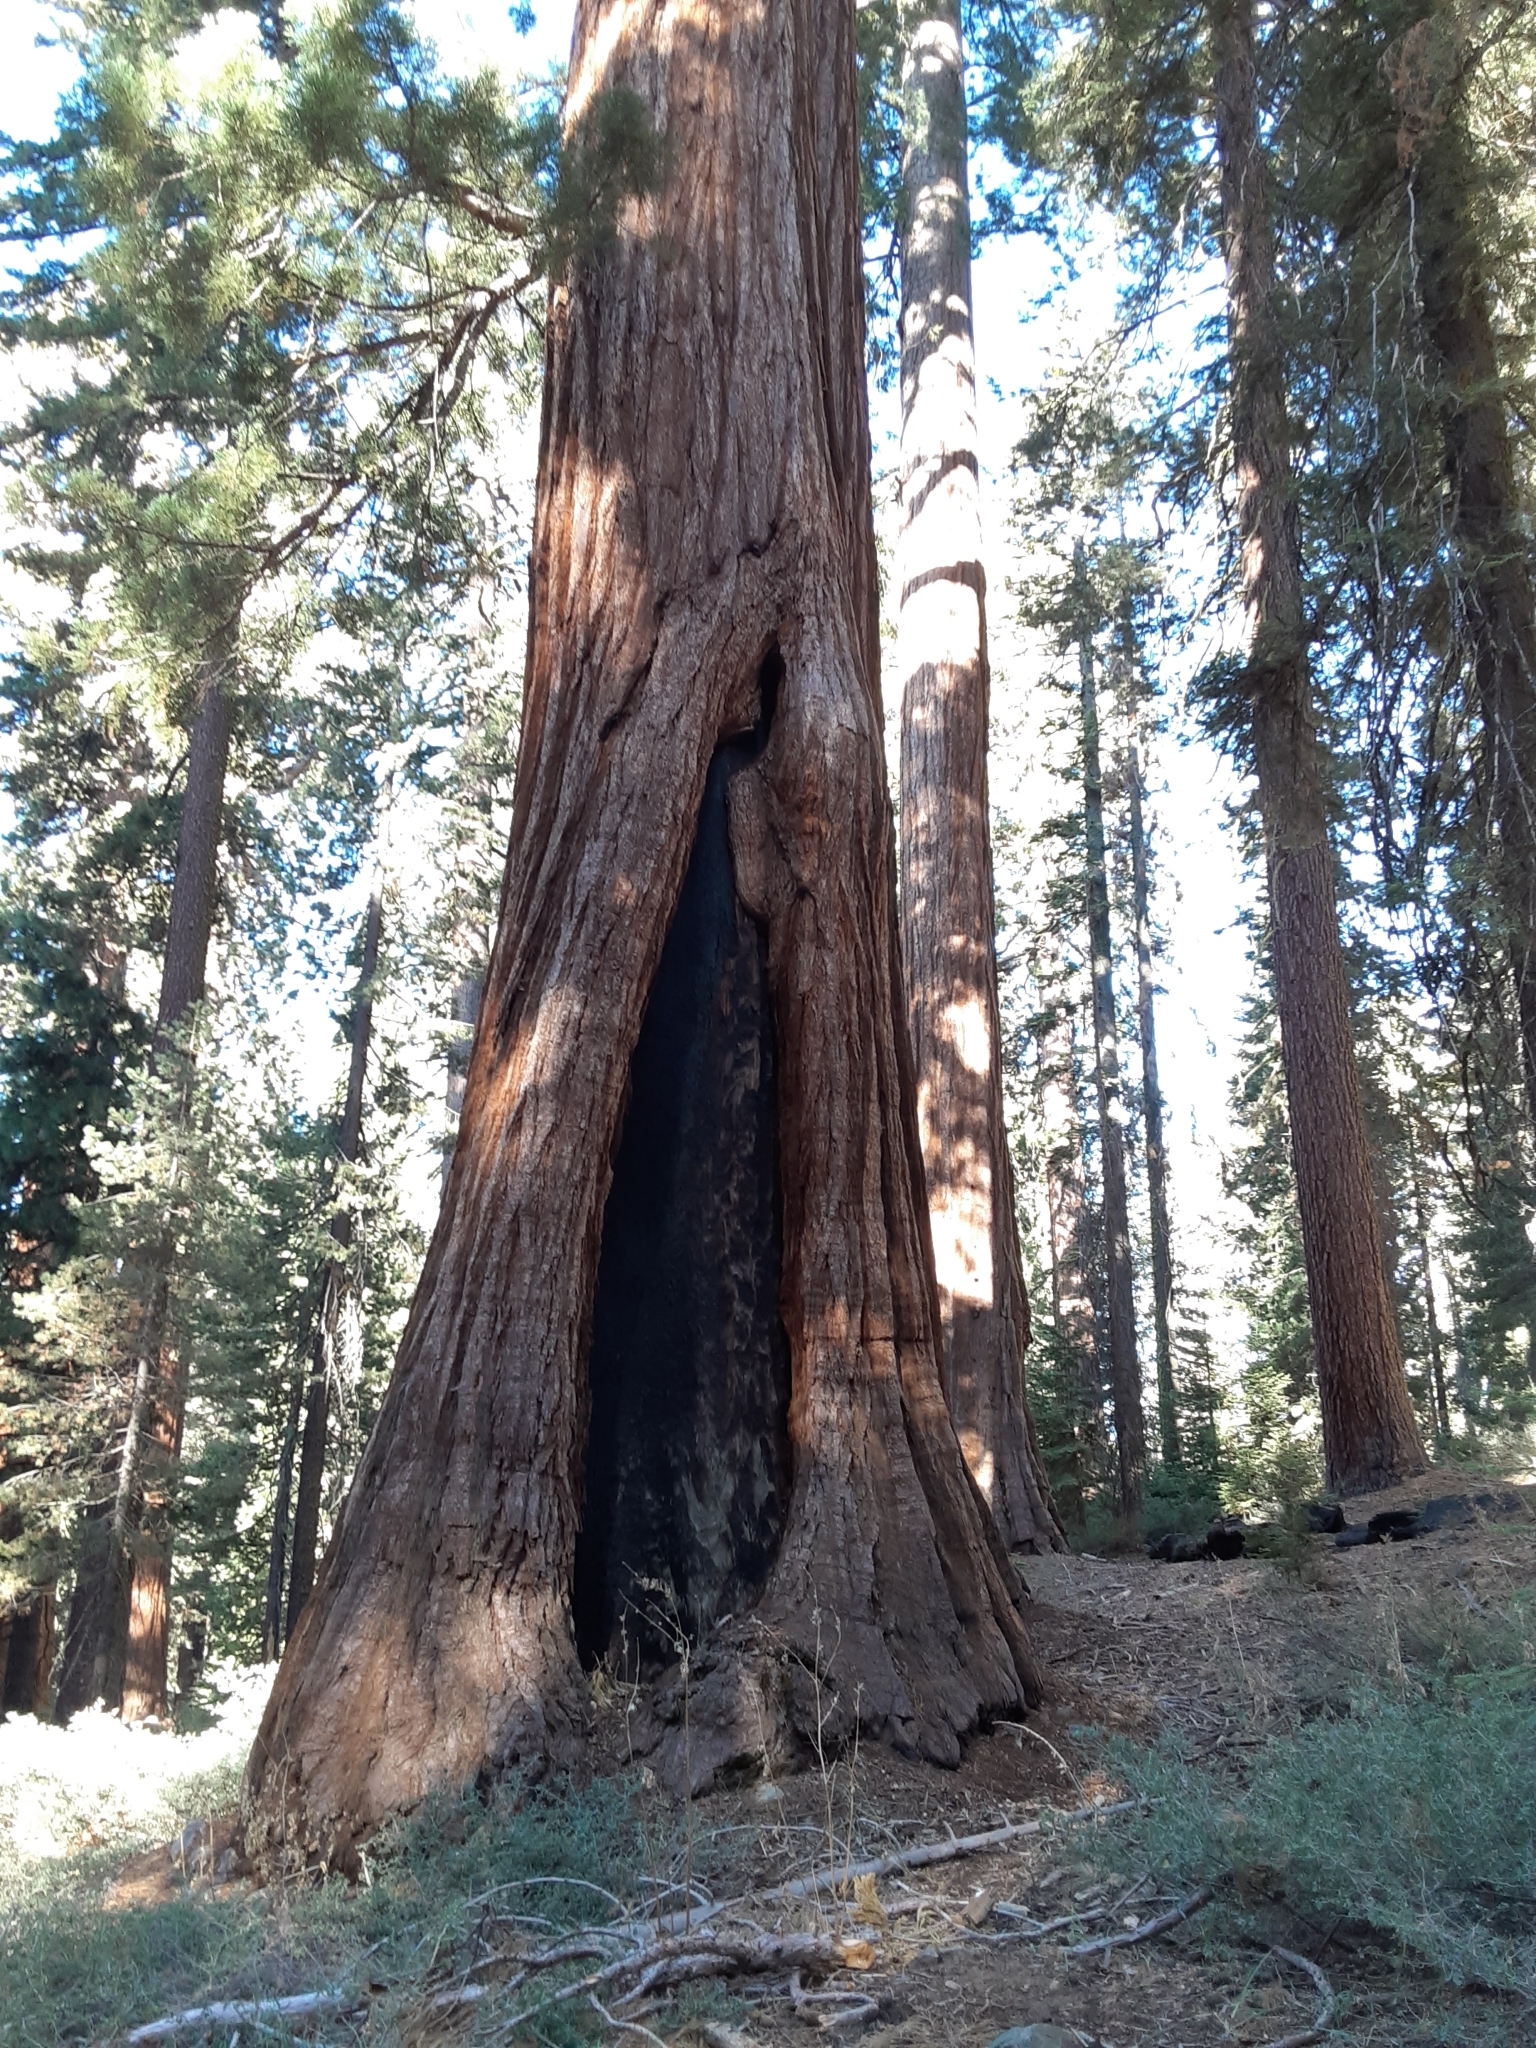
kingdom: Plantae
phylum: Tracheophyta
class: Pinopsida
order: Pinales
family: Cupressaceae
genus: Sequoiadendron
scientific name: Sequoiadendron giganteum
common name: Wellingtonia
